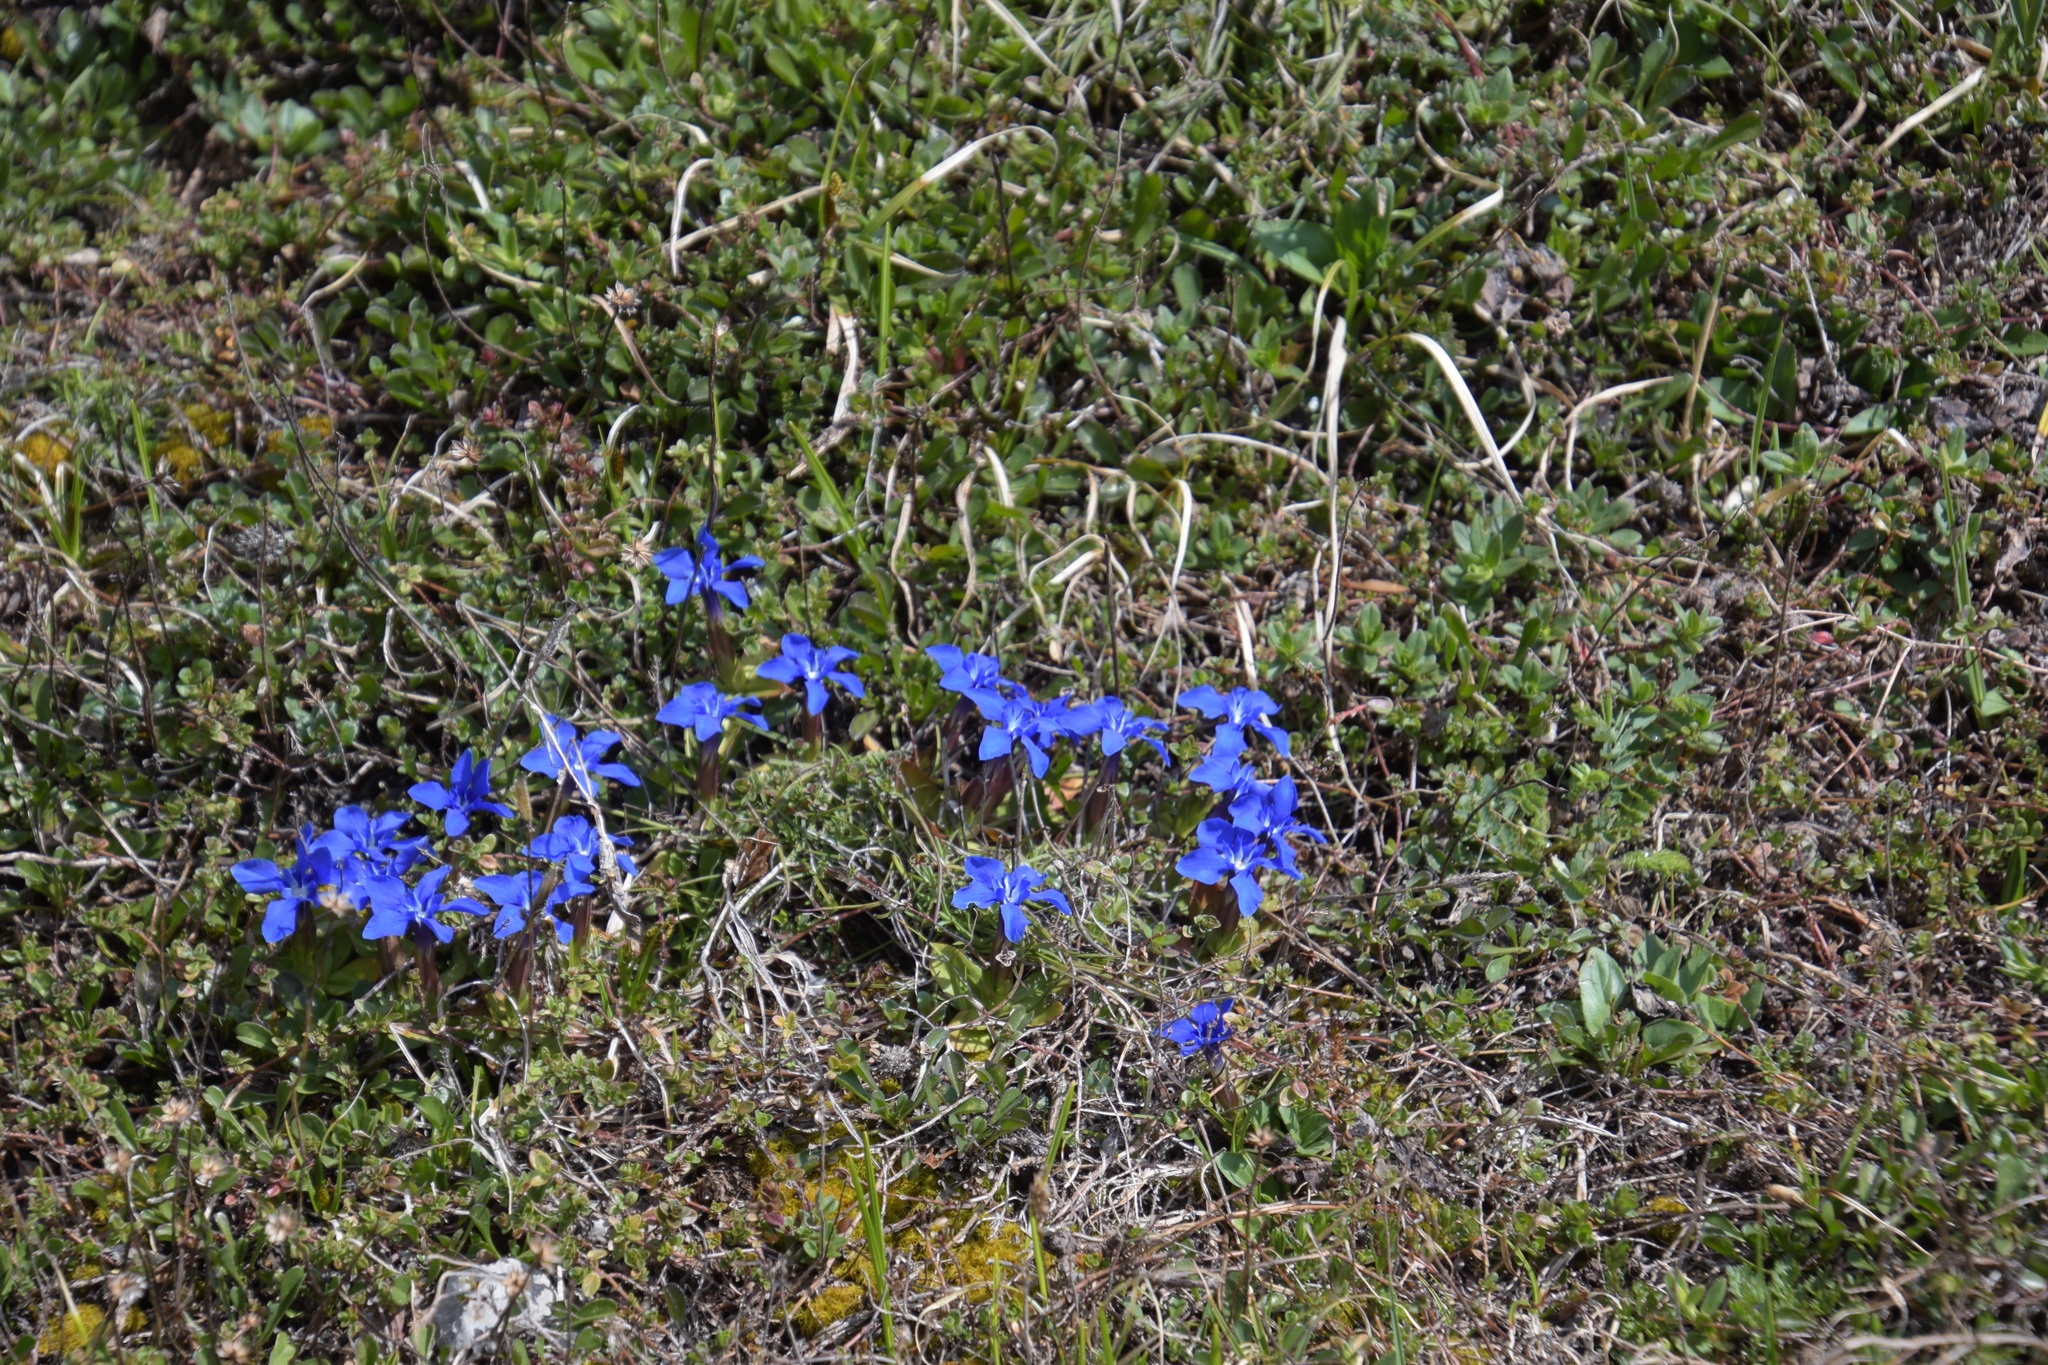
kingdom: Plantae
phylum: Tracheophyta
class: Magnoliopsida
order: Gentianales
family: Gentianaceae
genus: Gentiana
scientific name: Gentiana verna
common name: Spring gentian
